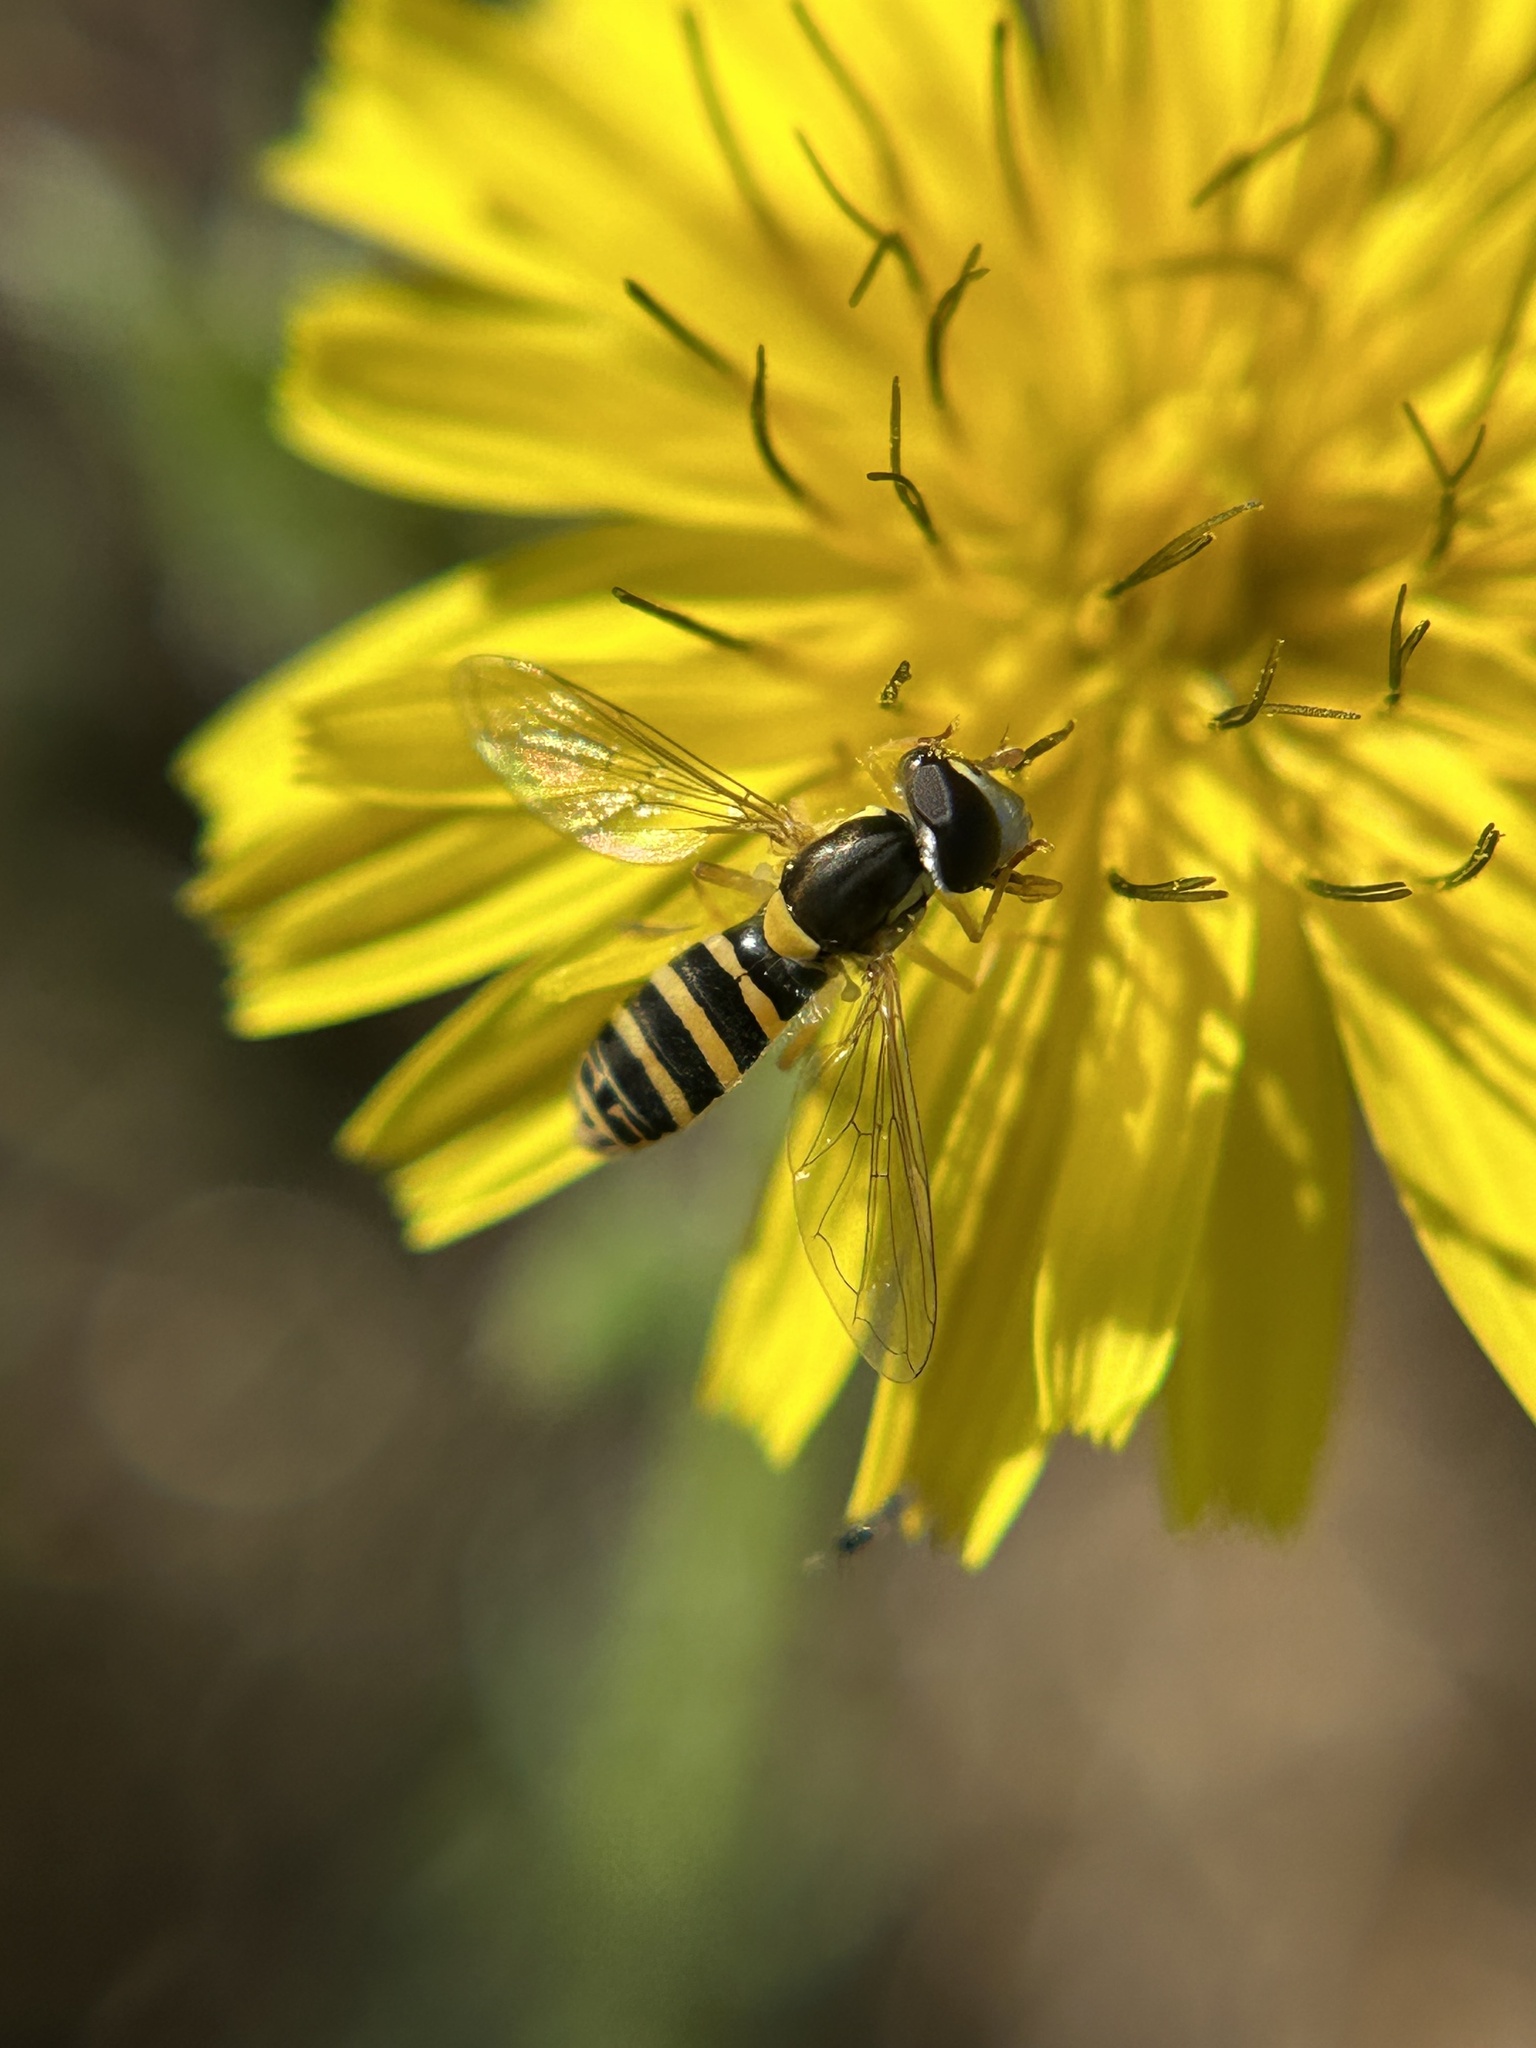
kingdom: Animalia
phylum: Arthropoda
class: Insecta
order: Diptera
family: Syrphidae
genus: Sphaerophoria
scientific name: Sphaerophoria sulphuripes
